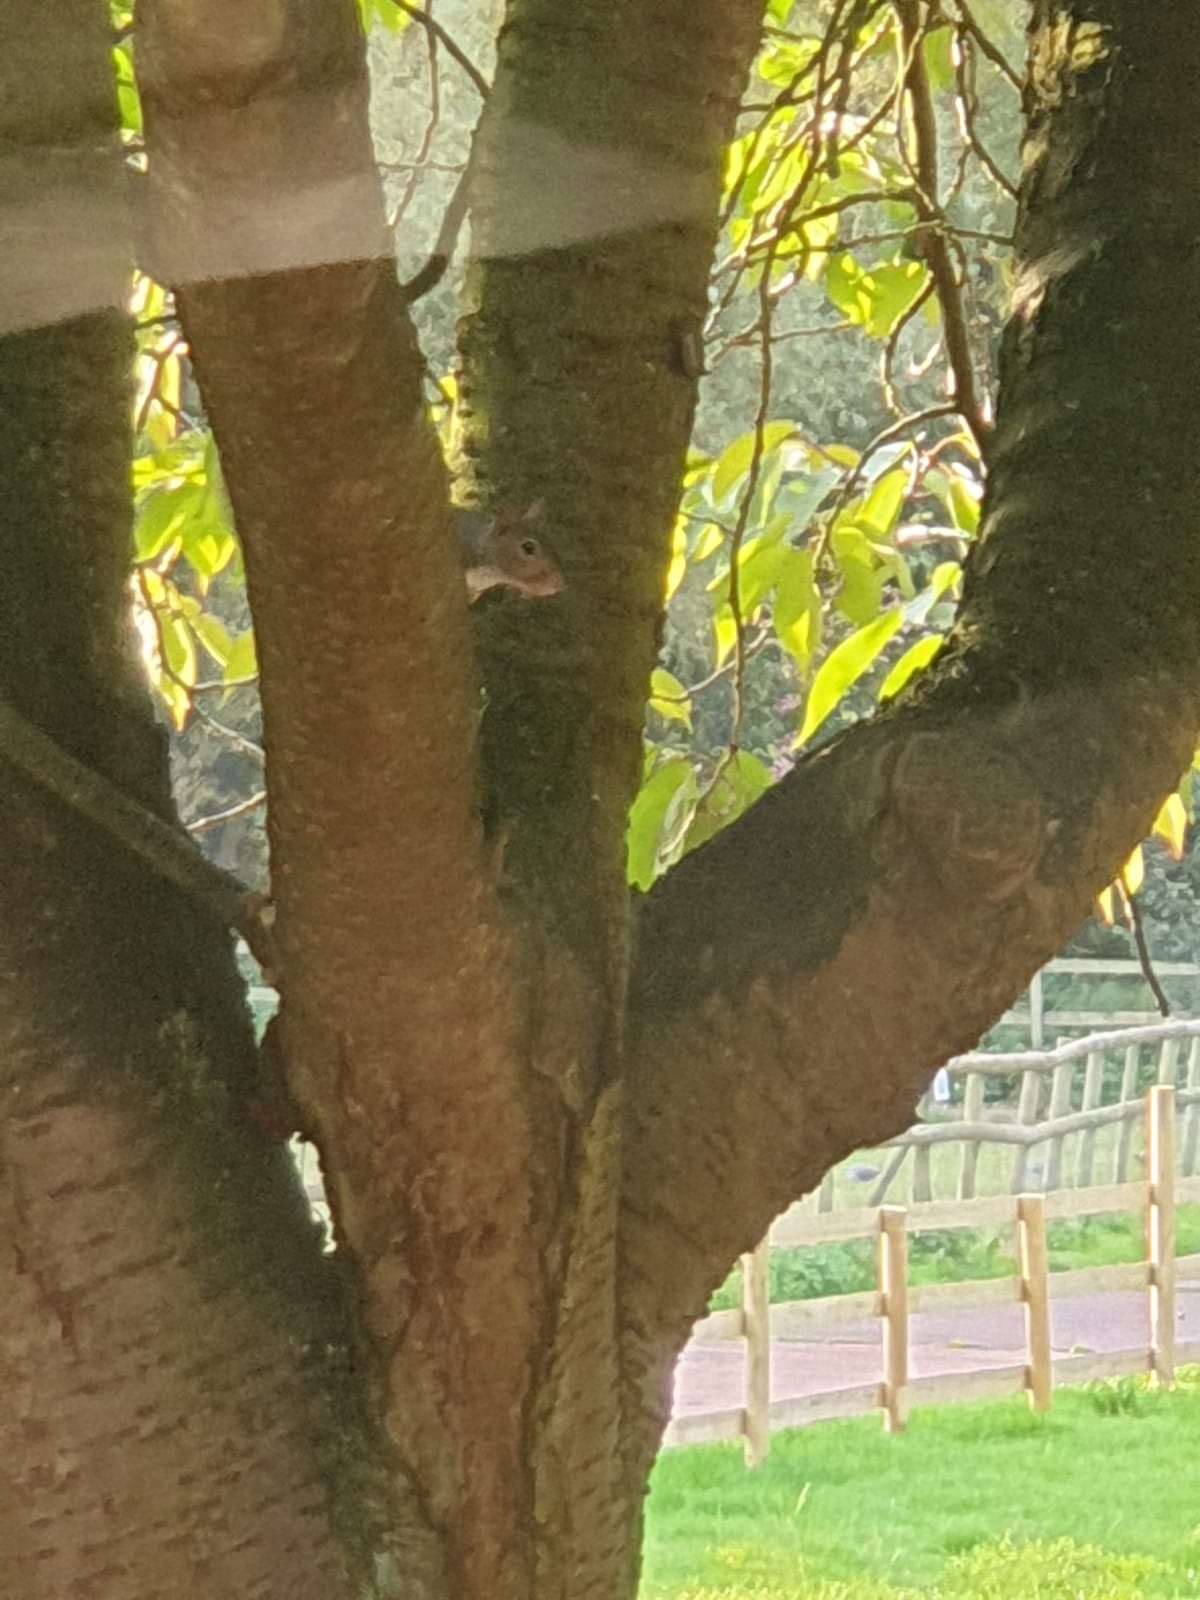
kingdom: Animalia
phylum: Chordata
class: Mammalia
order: Rodentia
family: Sciuridae
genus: Sciurus
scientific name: Sciurus carolinensis
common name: Eastern gray squirrel
